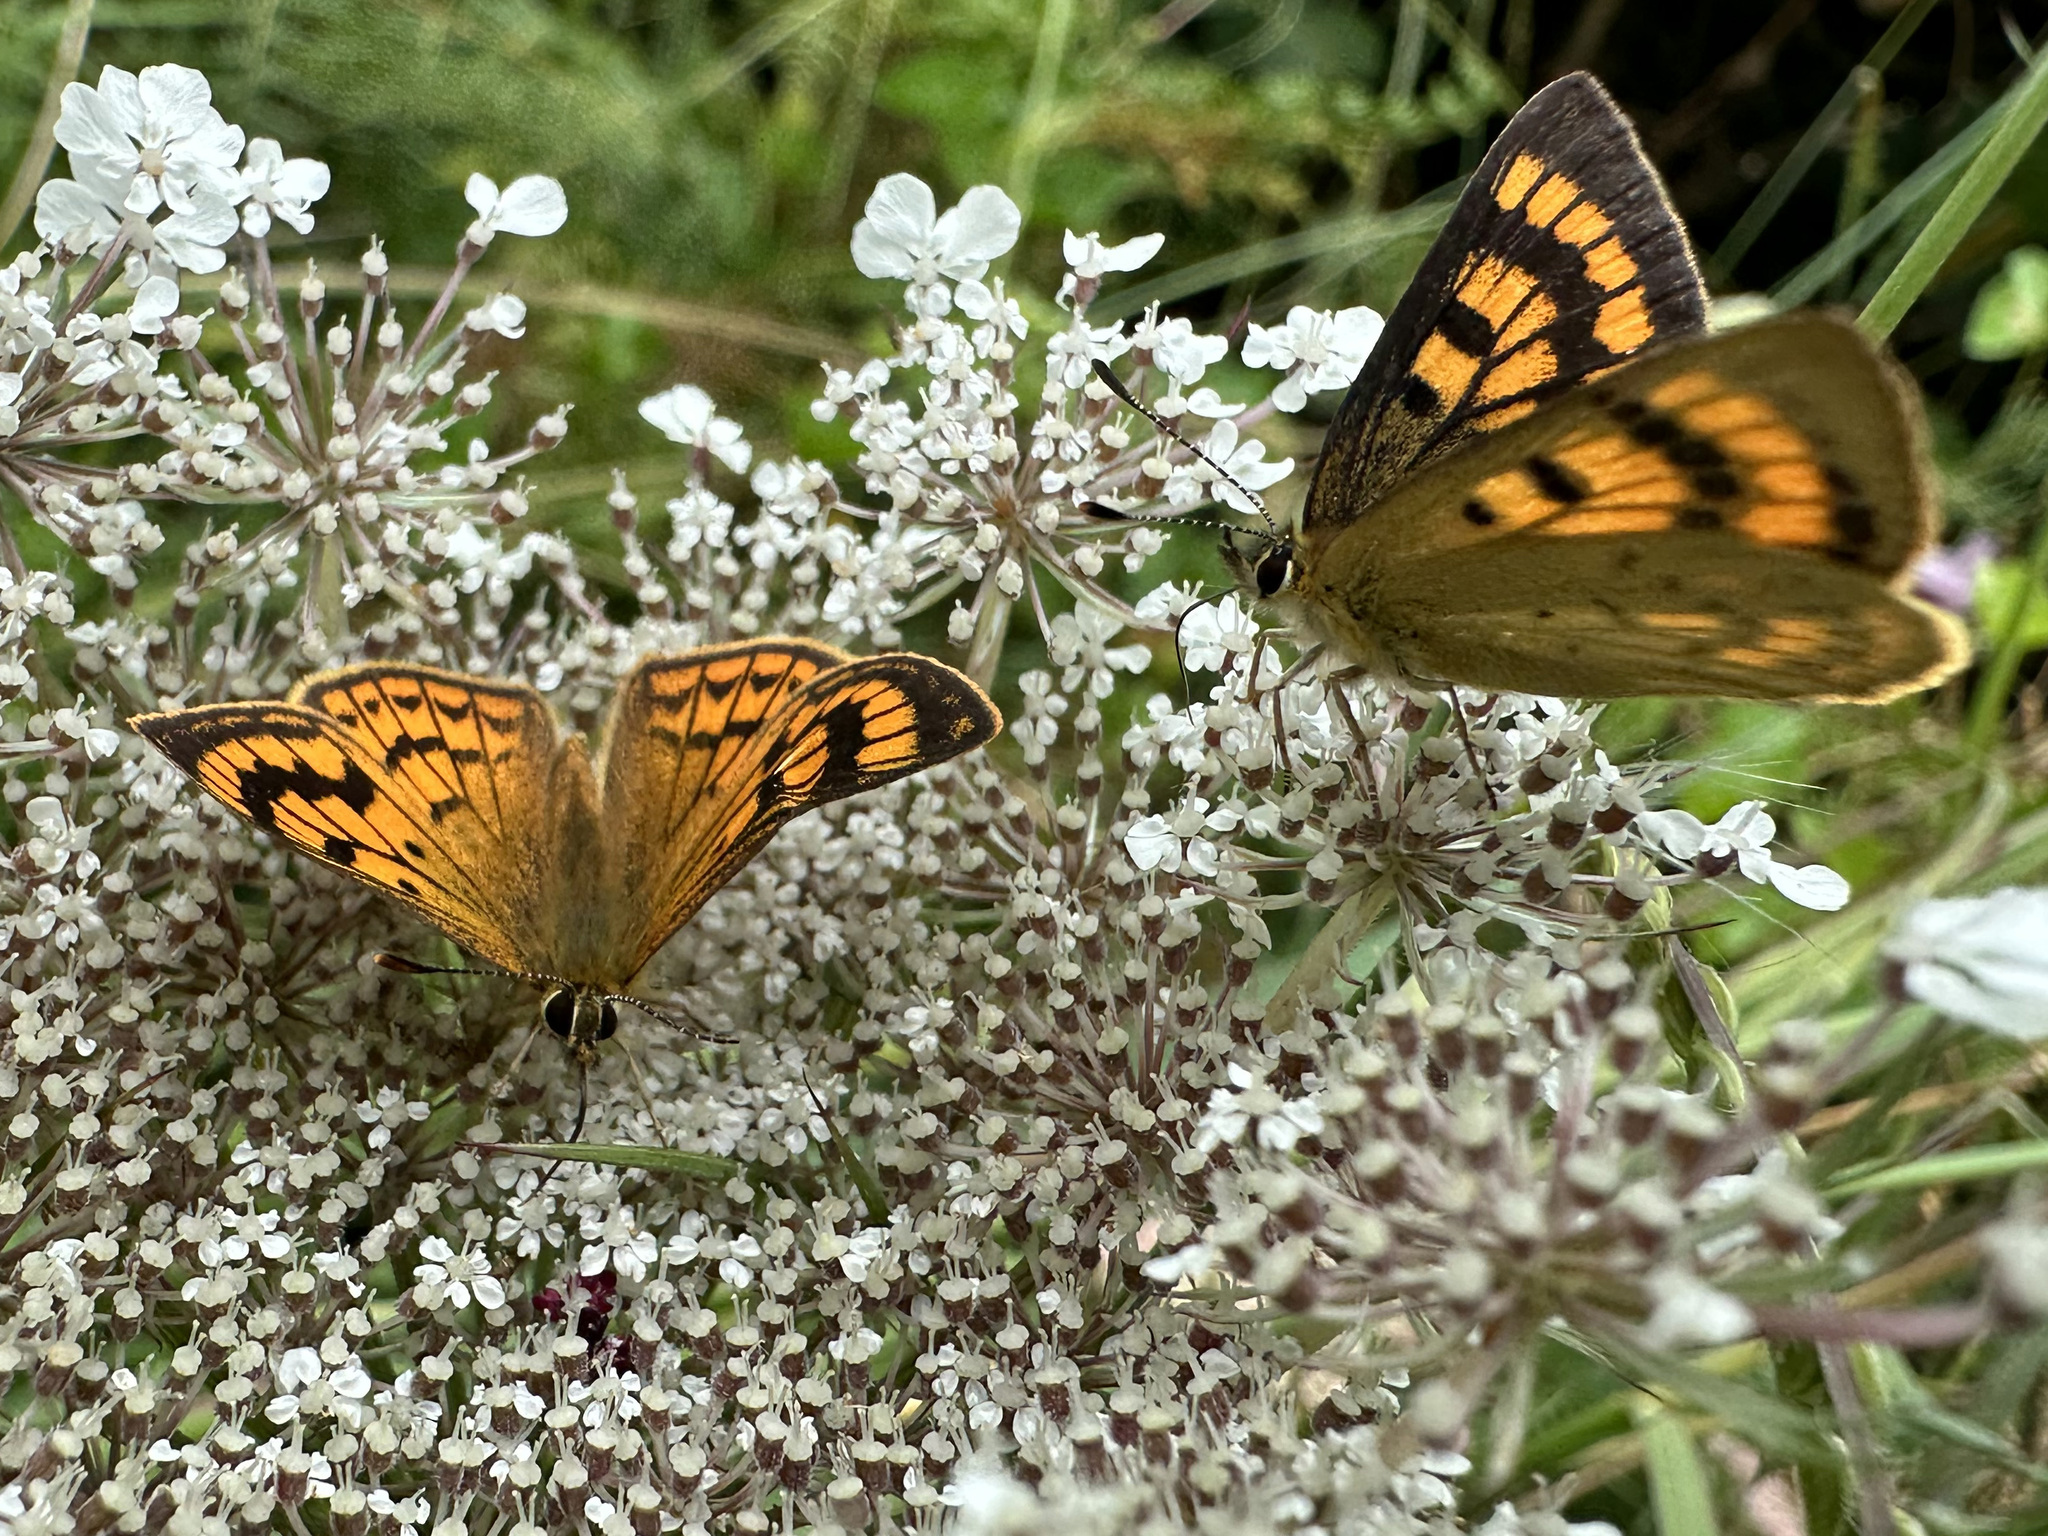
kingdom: Animalia
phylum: Arthropoda
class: Insecta
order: Lepidoptera
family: Lycaenidae
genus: Lycaena
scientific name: Lycaena salustius
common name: North island coastal copper
